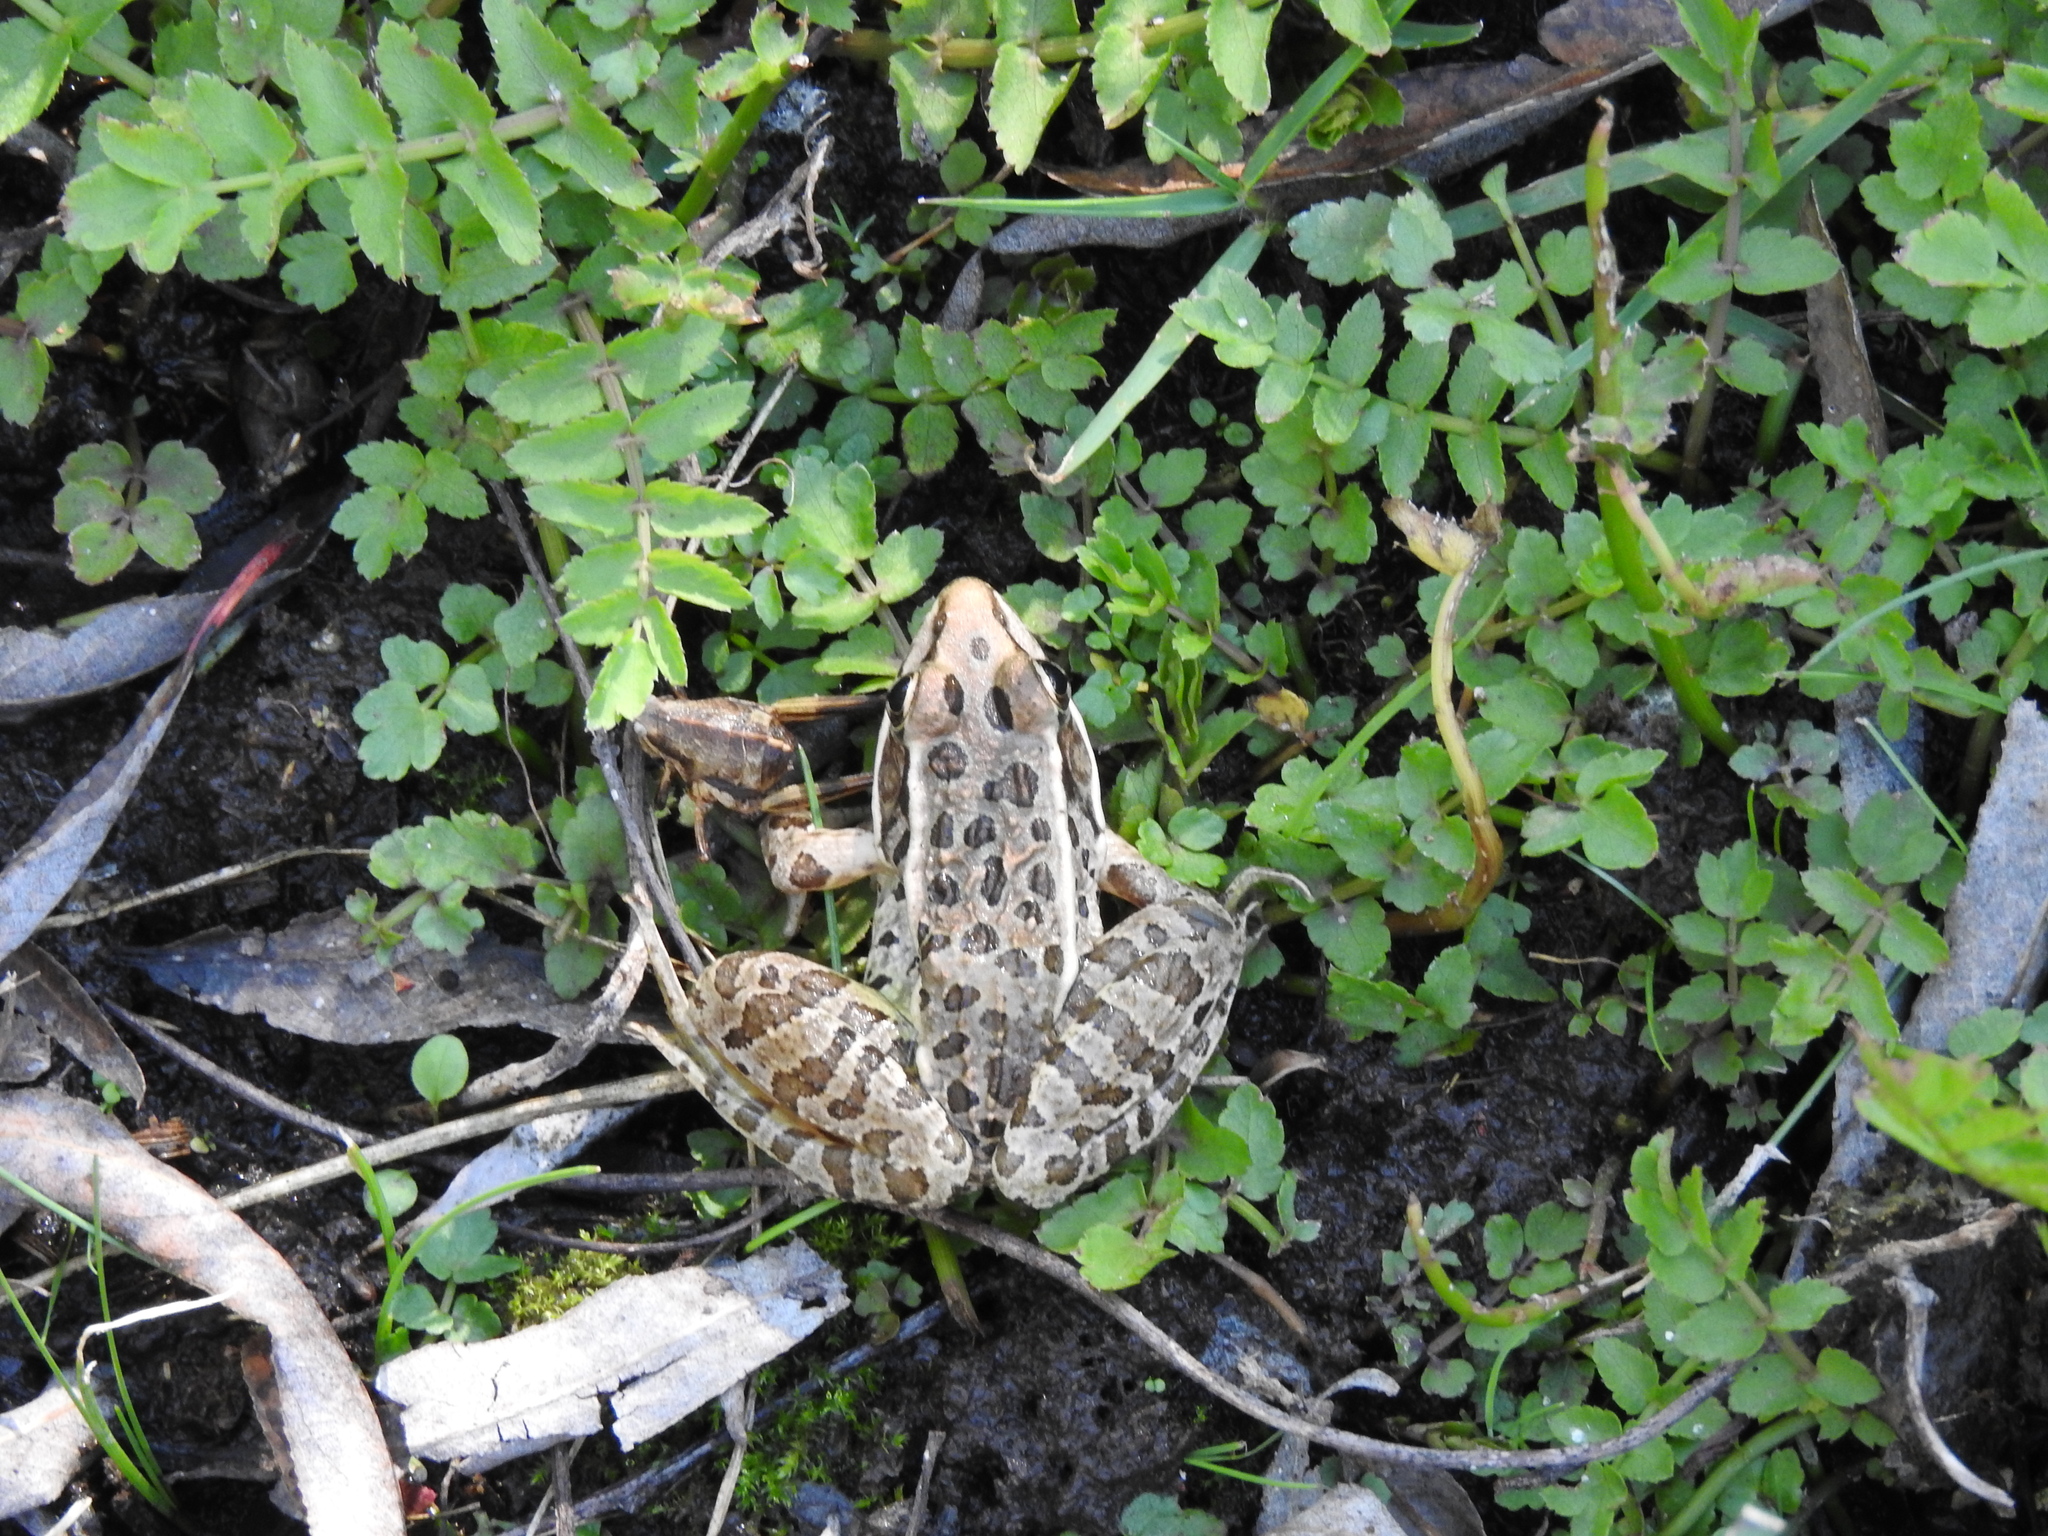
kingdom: Animalia
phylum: Chordata
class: Amphibia
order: Anura
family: Ranidae
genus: Lithobates
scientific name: Lithobates neovolcanicus
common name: Transverse volcanic leopard frog
